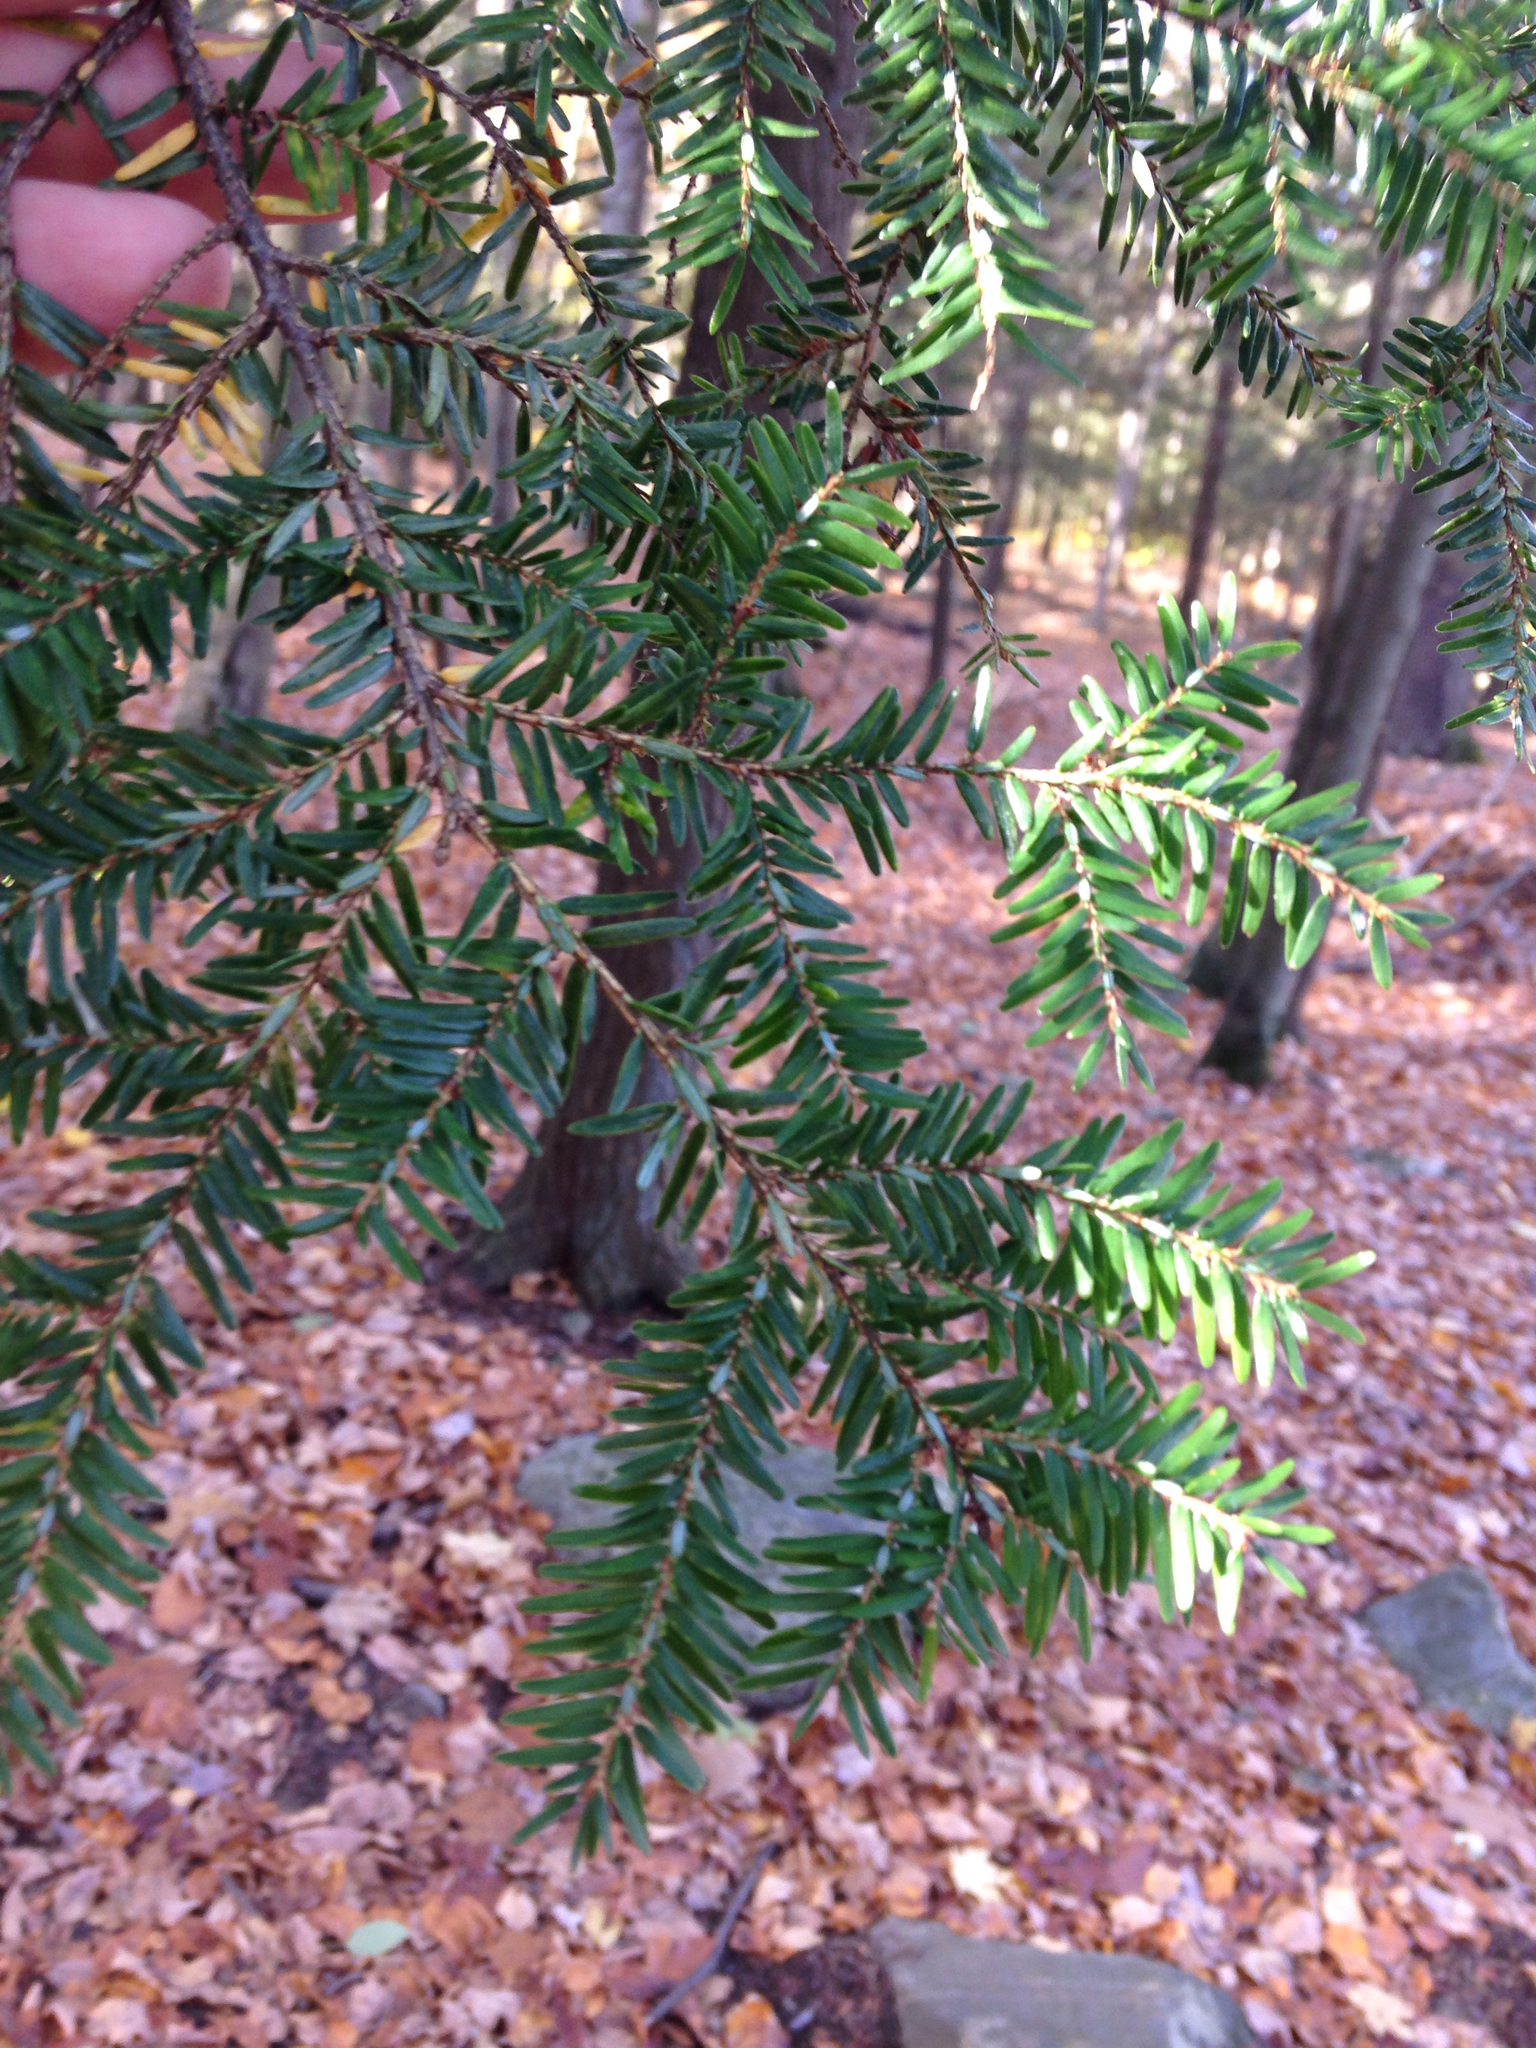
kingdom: Plantae
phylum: Tracheophyta
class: Pinopsida
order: Pinales
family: Pinaceae
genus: Tsuga
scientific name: Tsuga canadensis
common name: Eastern hemlock
